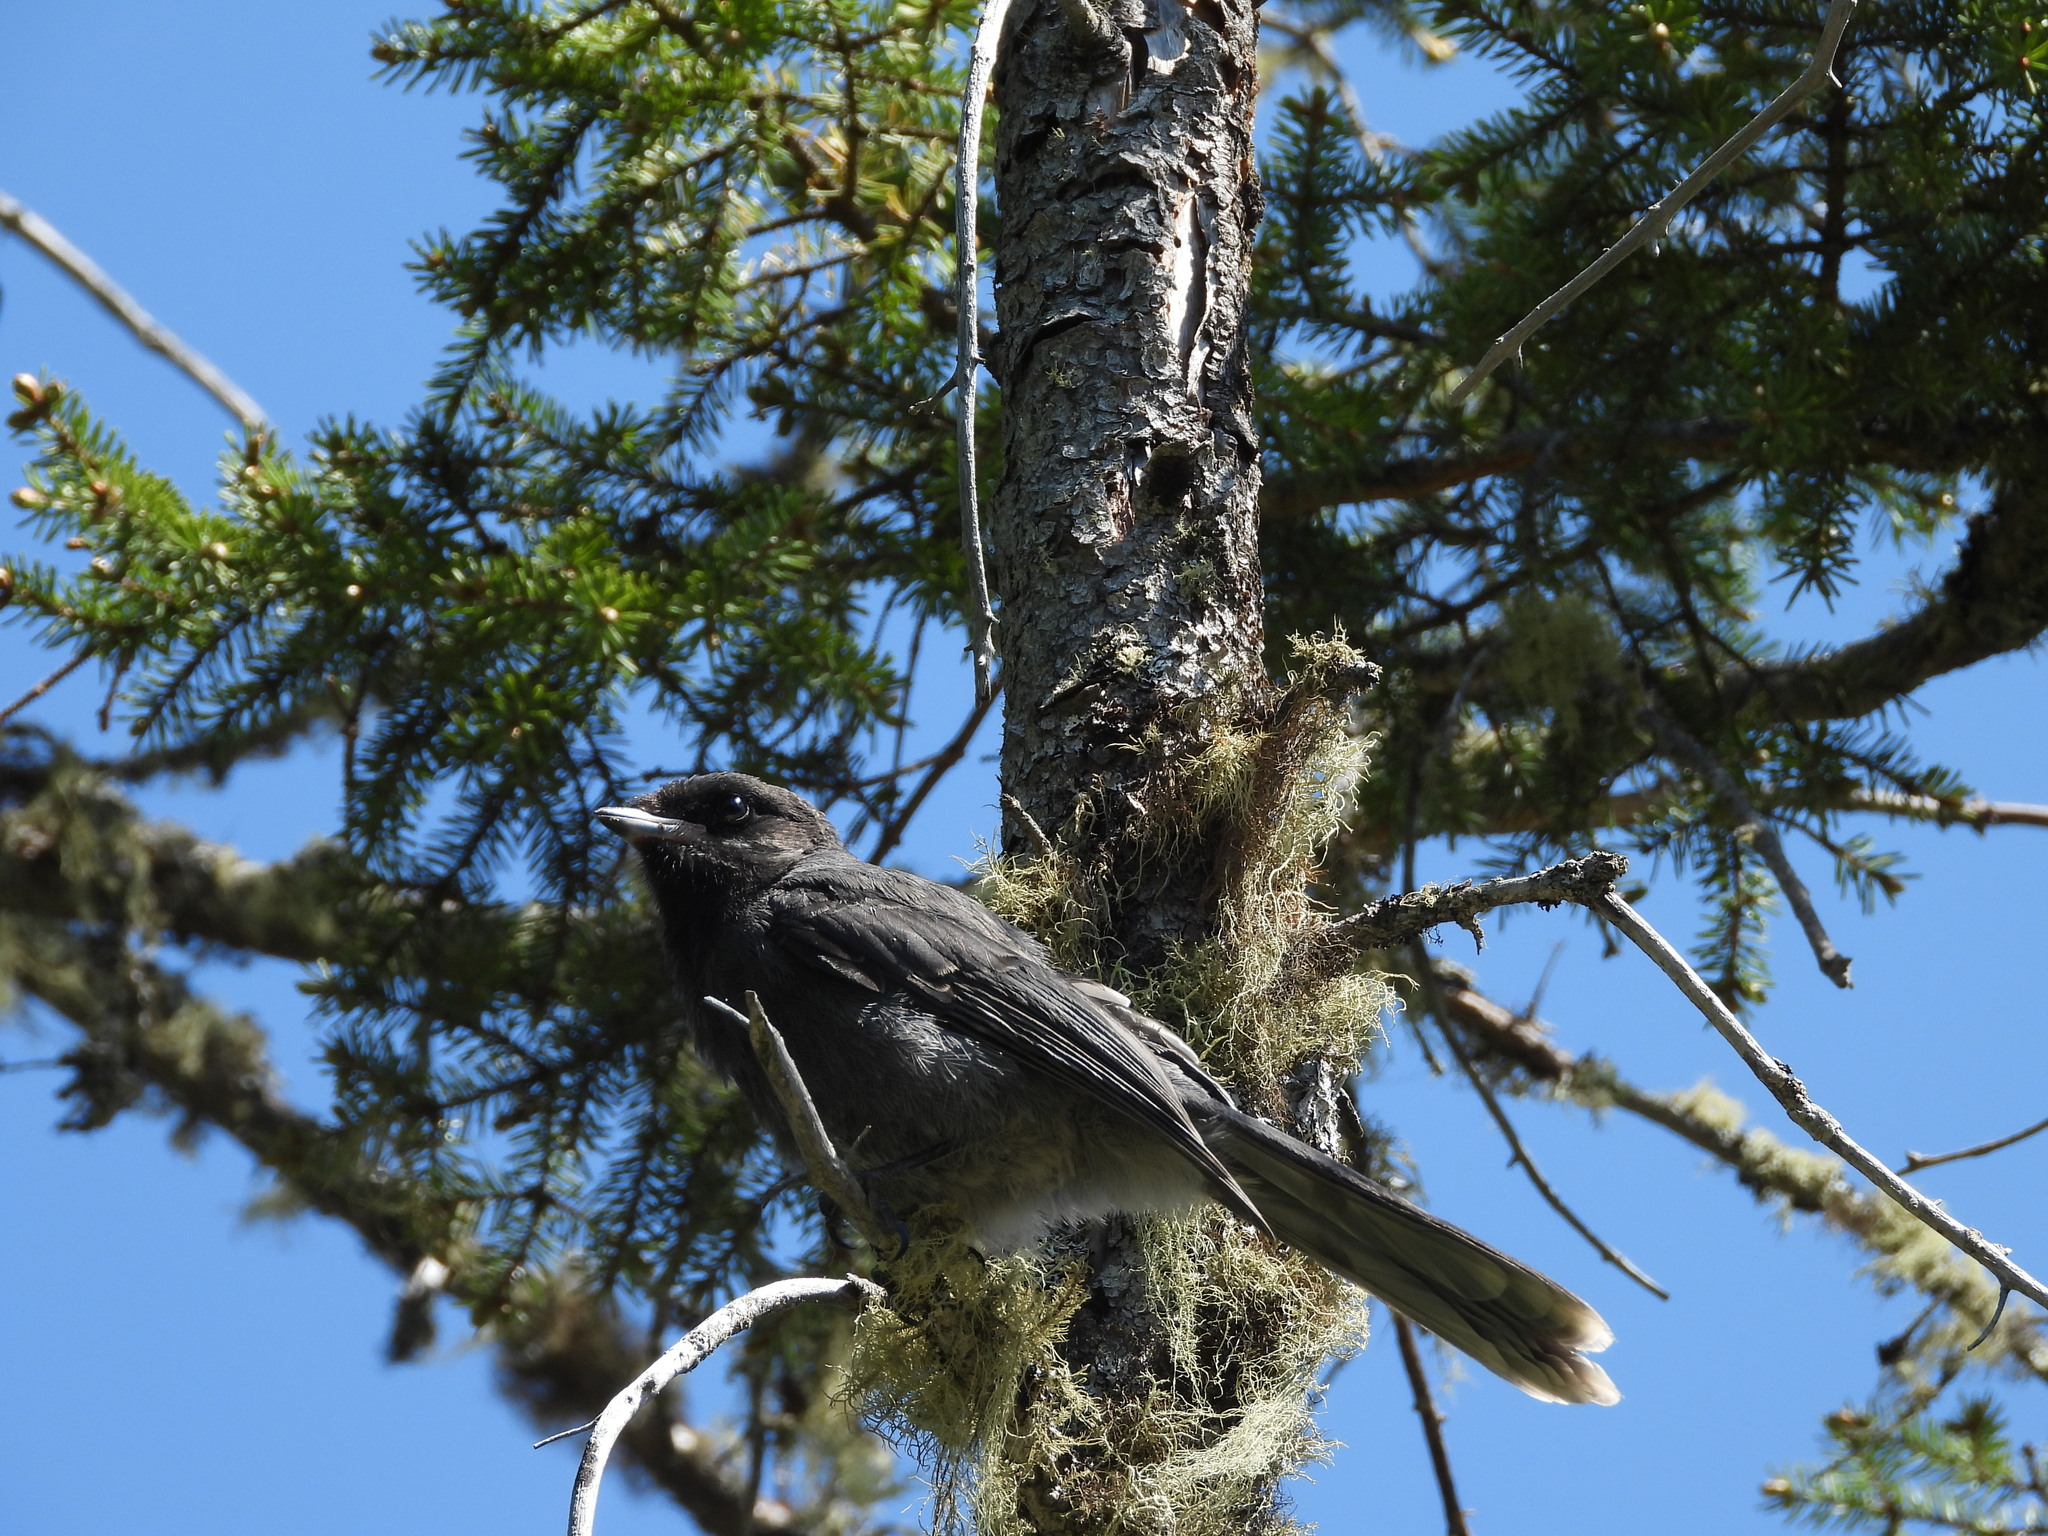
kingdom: Animalia
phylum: Chordata
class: Aves
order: Passeriformes
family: Corvidae
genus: Perisoreus
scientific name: Perisoreus canadensis
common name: Gray jay
